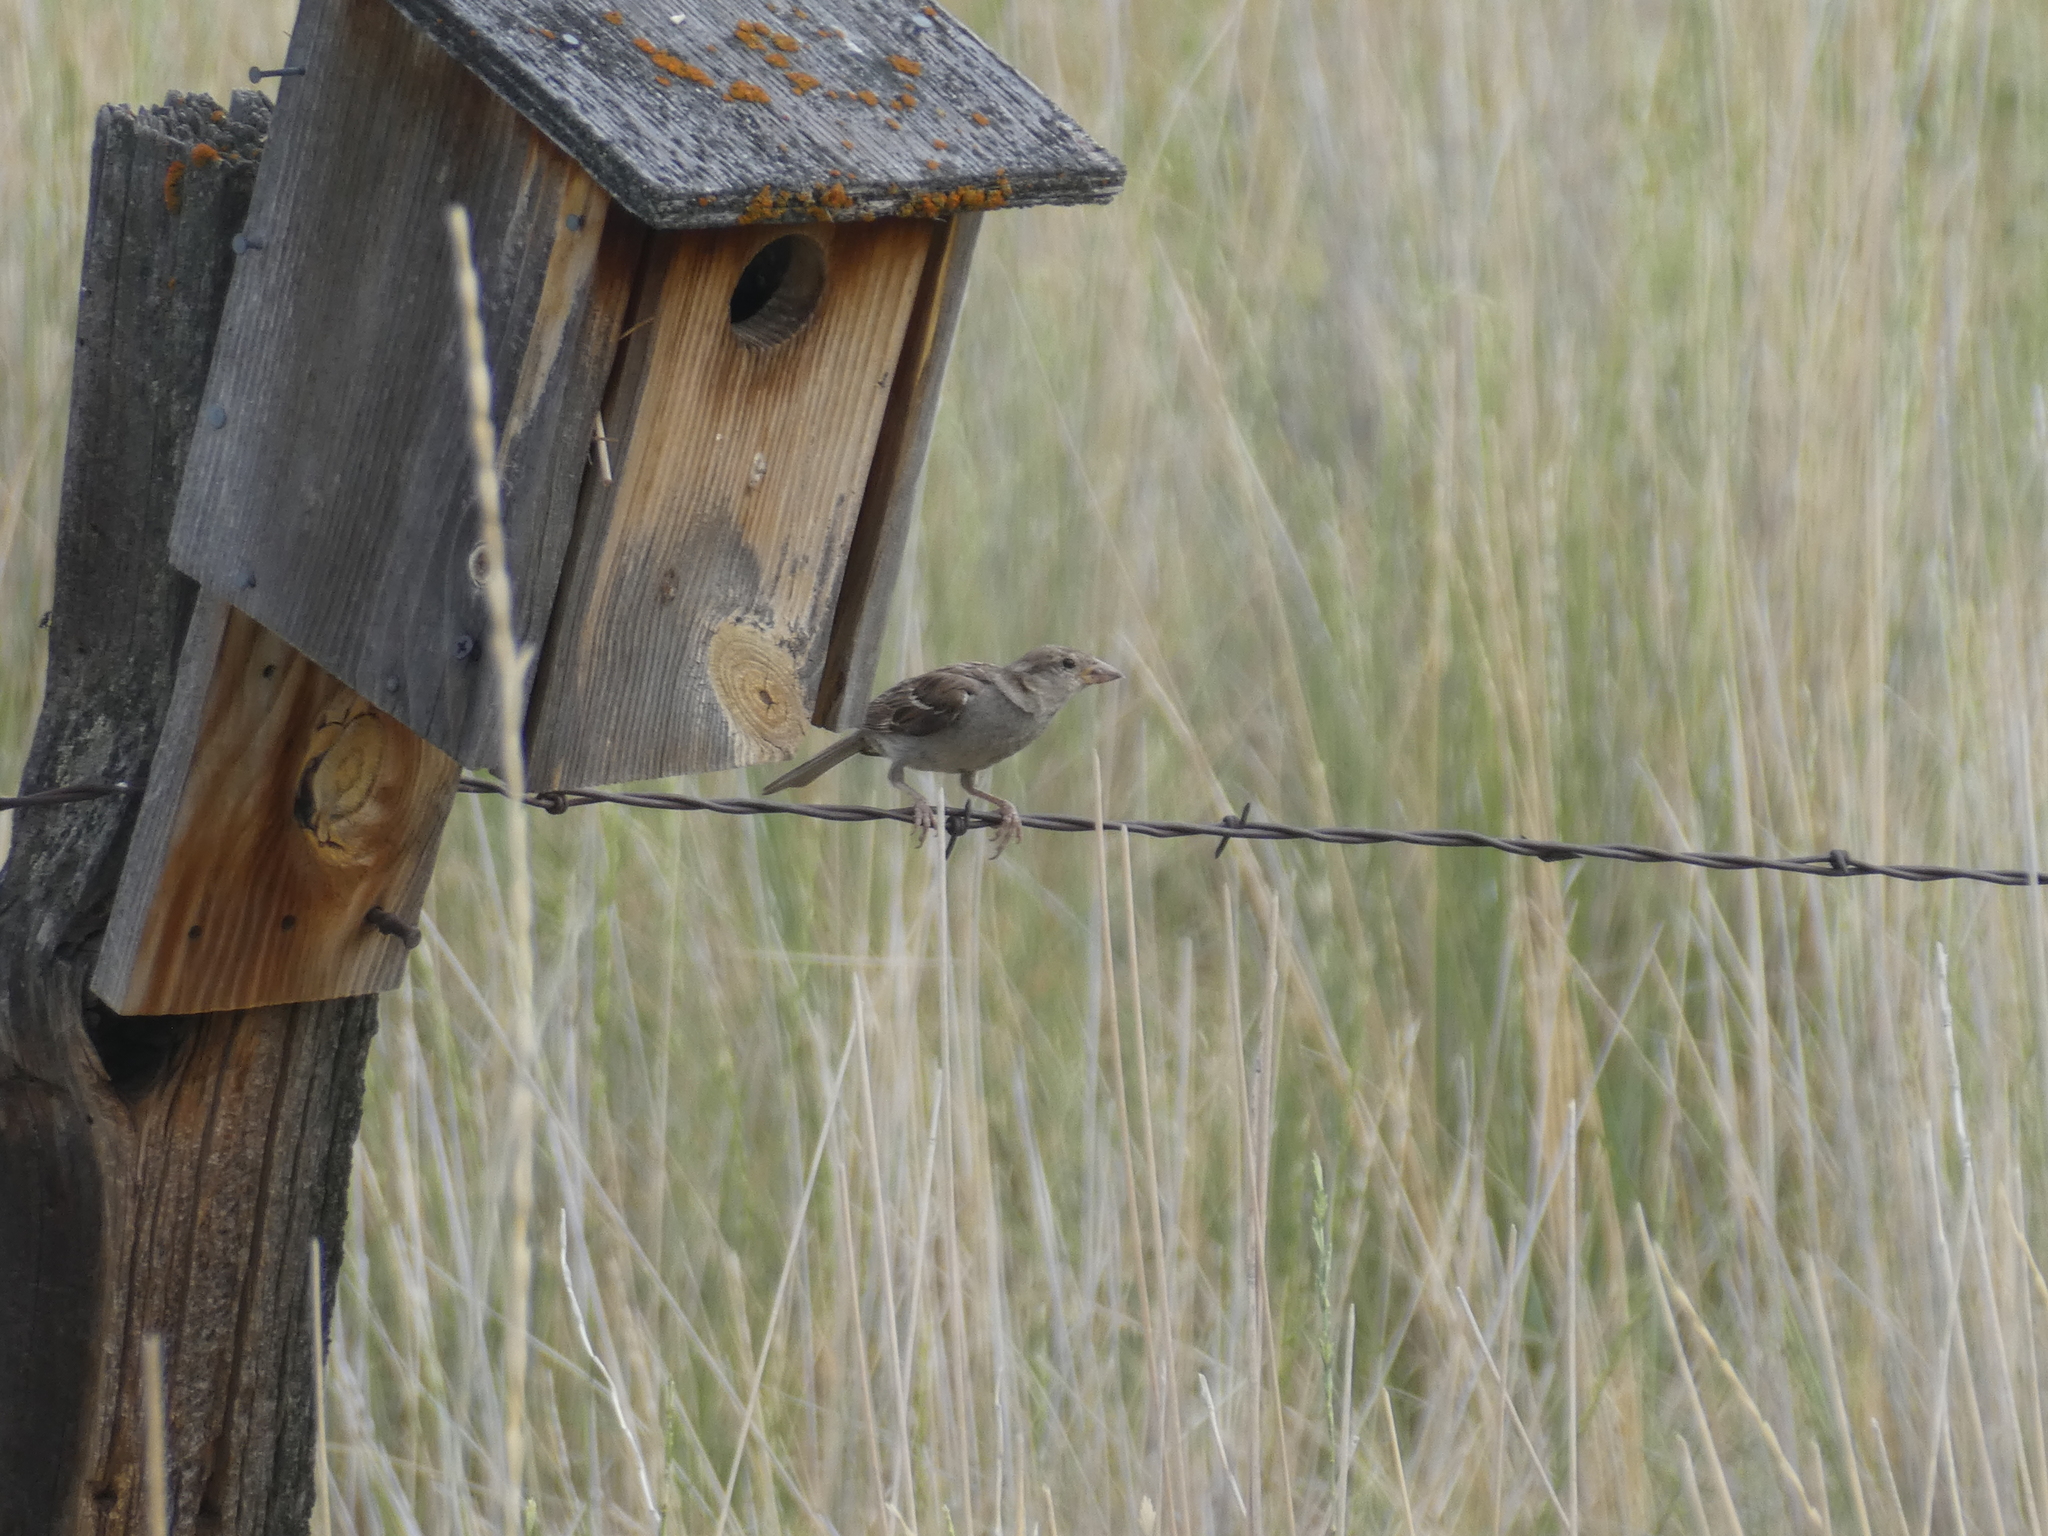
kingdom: Animalia
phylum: Chordata
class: Aves
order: Passeriformes
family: Passeridae
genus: Passer
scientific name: Passer domesticus
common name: House sparrow
